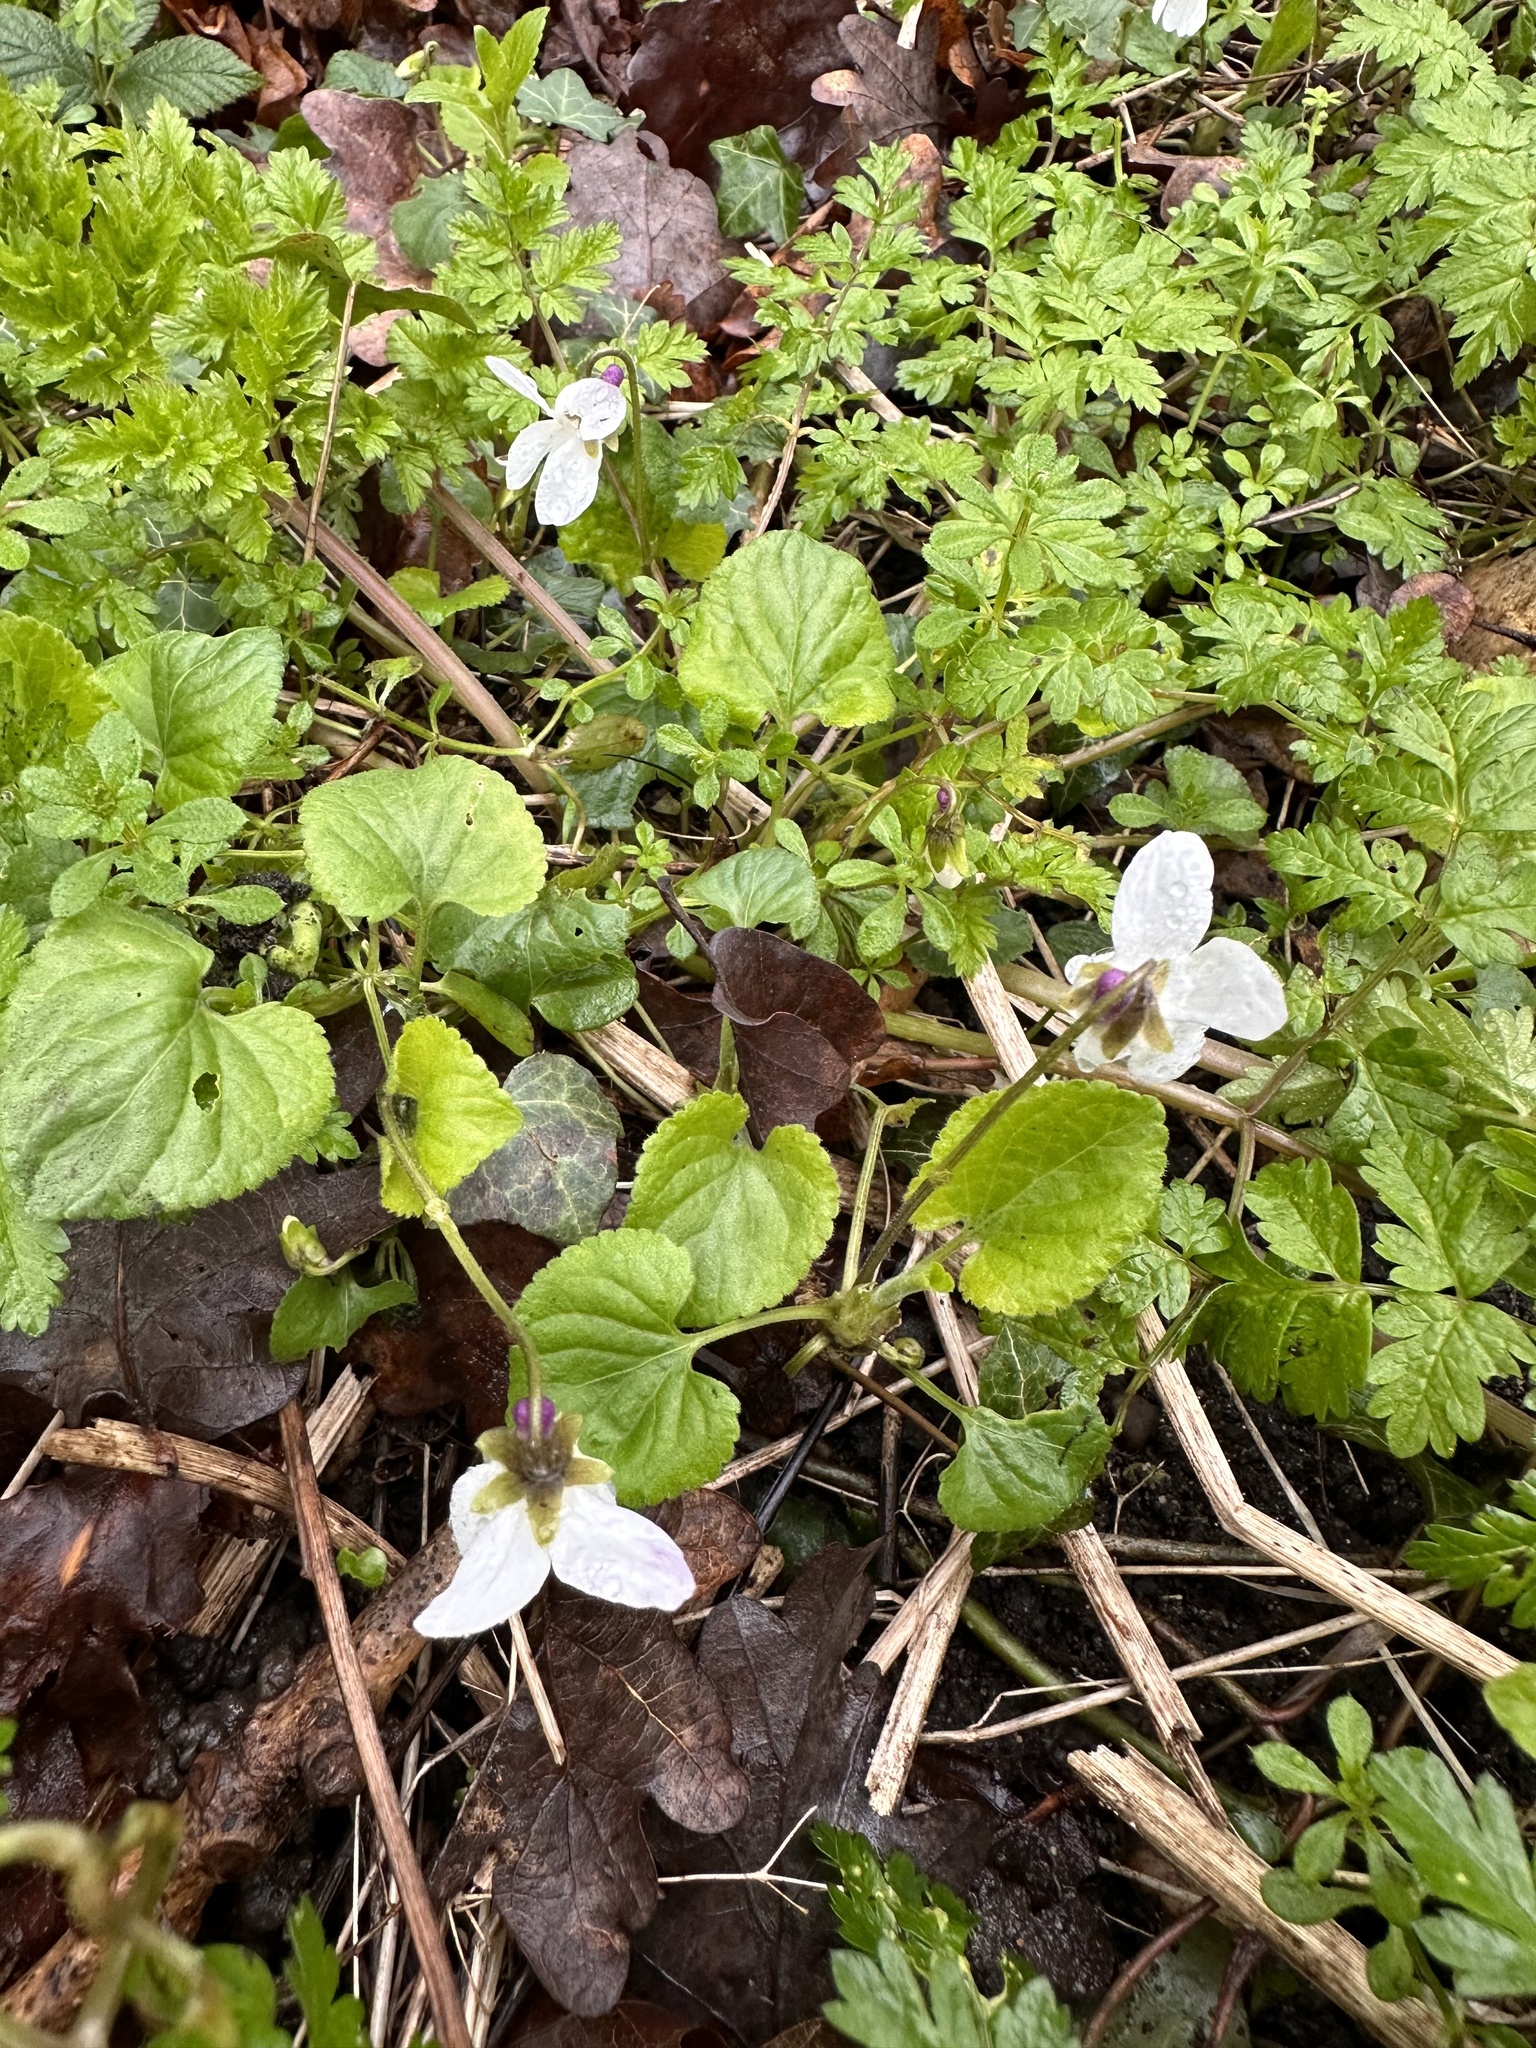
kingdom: Plantae
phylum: Tracheophyta
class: Magnoliopsida
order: Malpighiales
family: Violaceae
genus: Viola
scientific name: Viola odorata
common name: Sweet violet
